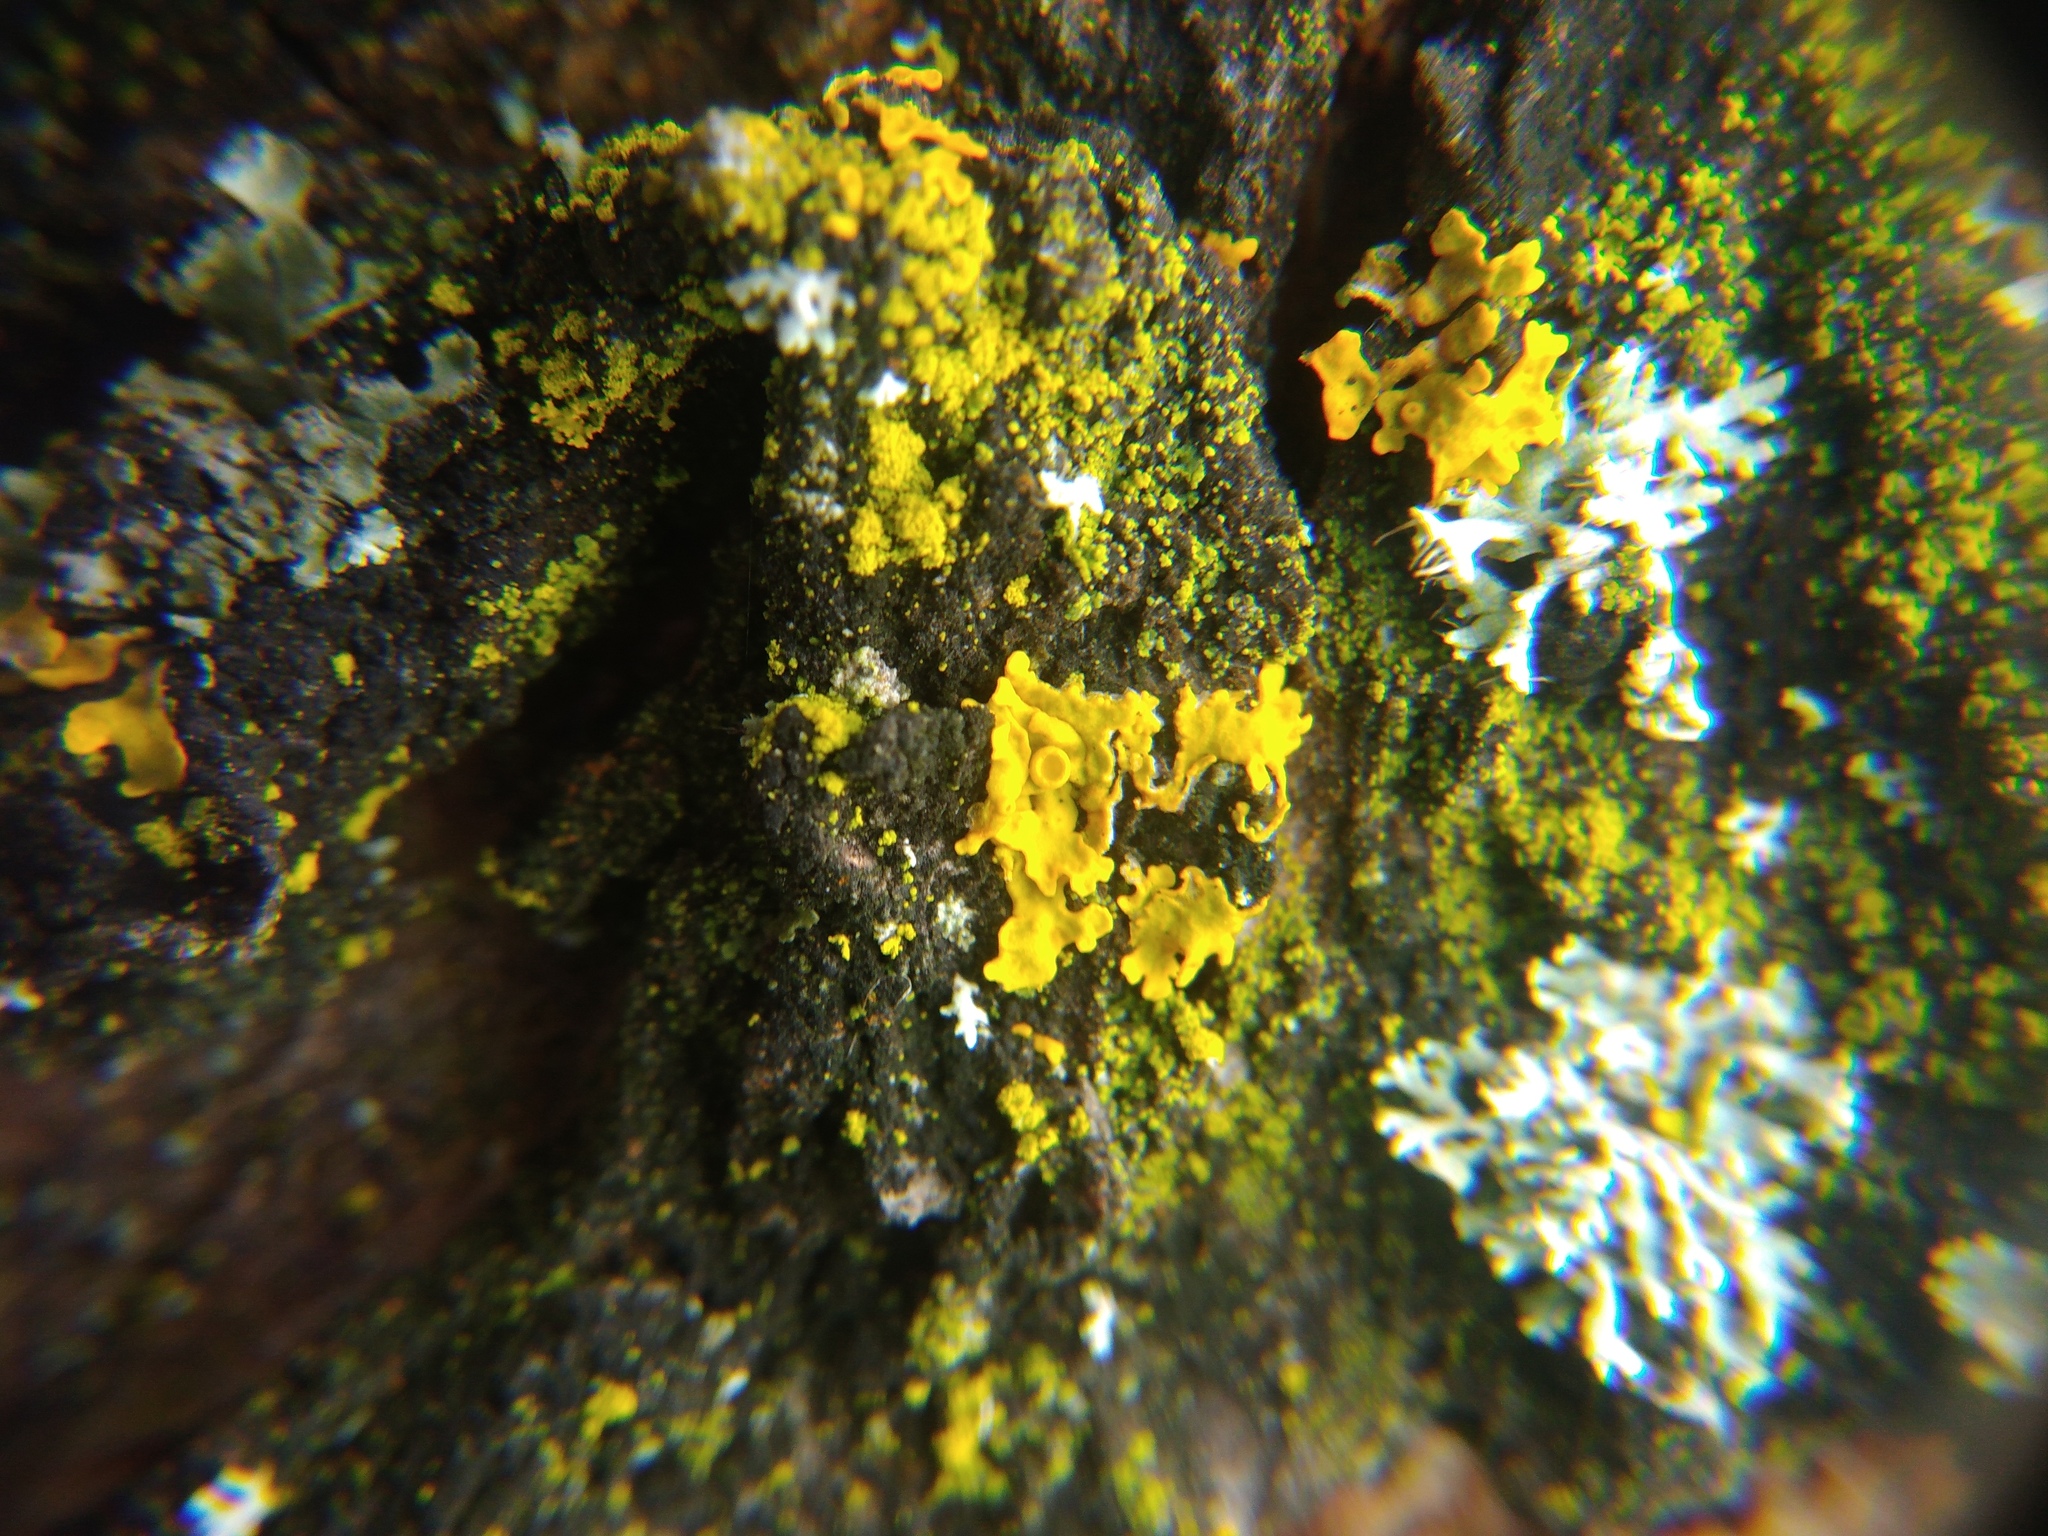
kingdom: Fungi
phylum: Ascomycota
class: Lecanoromycetes
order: Teloschistales
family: Teloschistaceae
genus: Xanthoria
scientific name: Xanthoria parietina
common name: Common orange lichen
